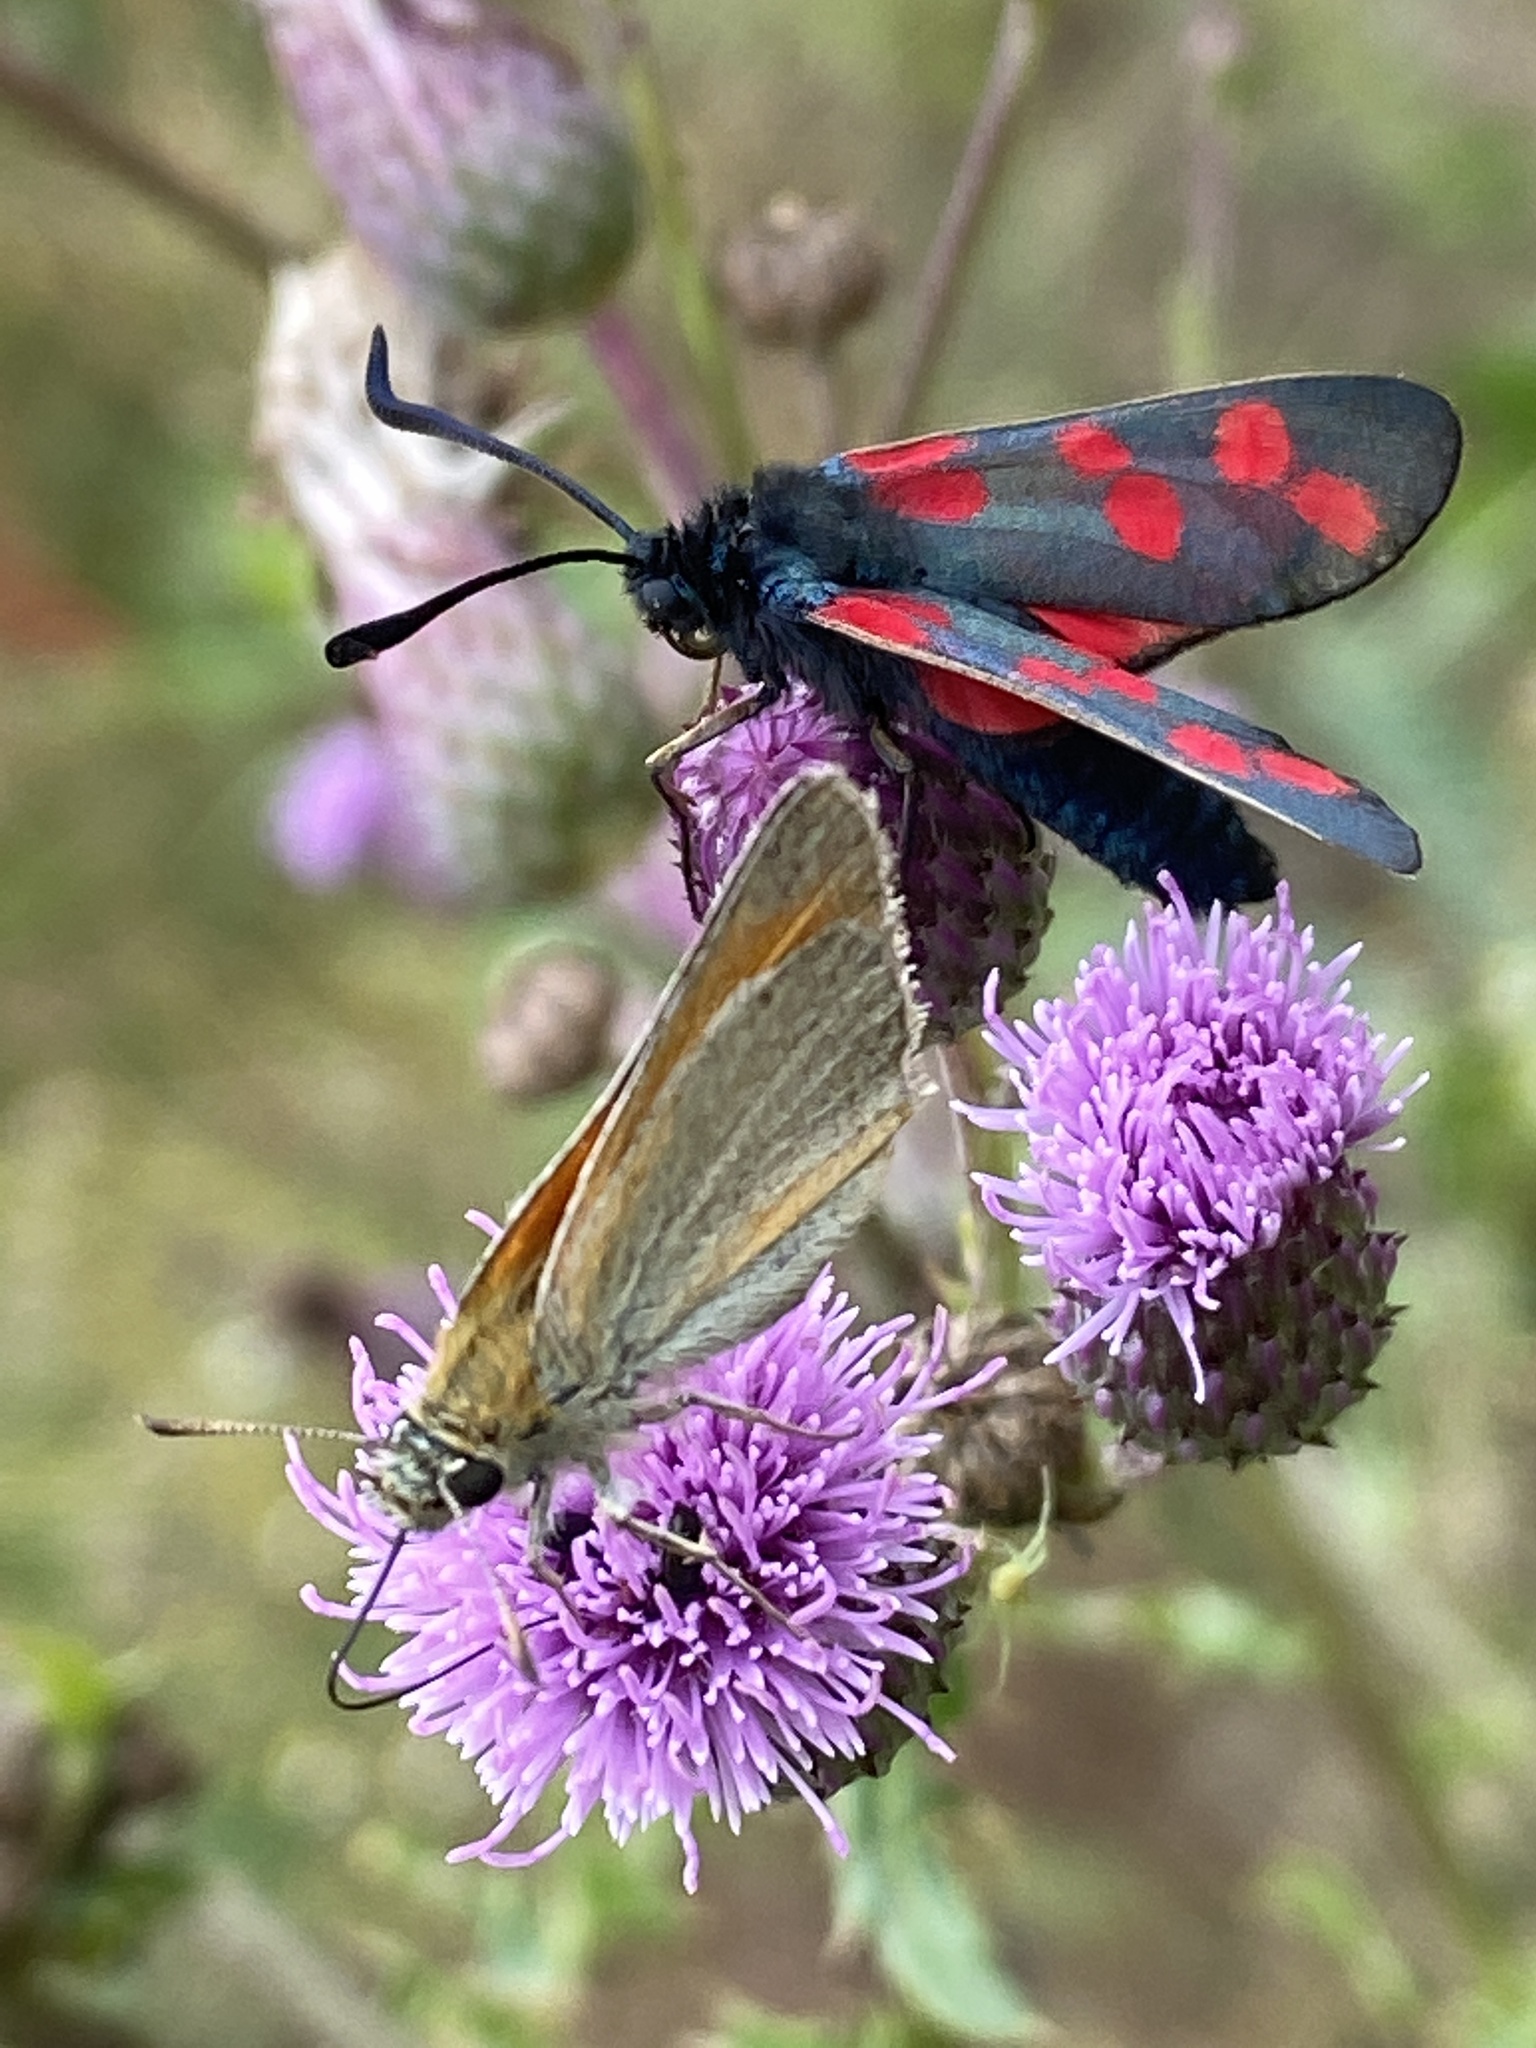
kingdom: Animalia
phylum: Arthropoda
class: Insecta
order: Lepidoptera
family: Zygaenidae
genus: Zygaena
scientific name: Zygaena filipendulae
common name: Six-spot burnet
